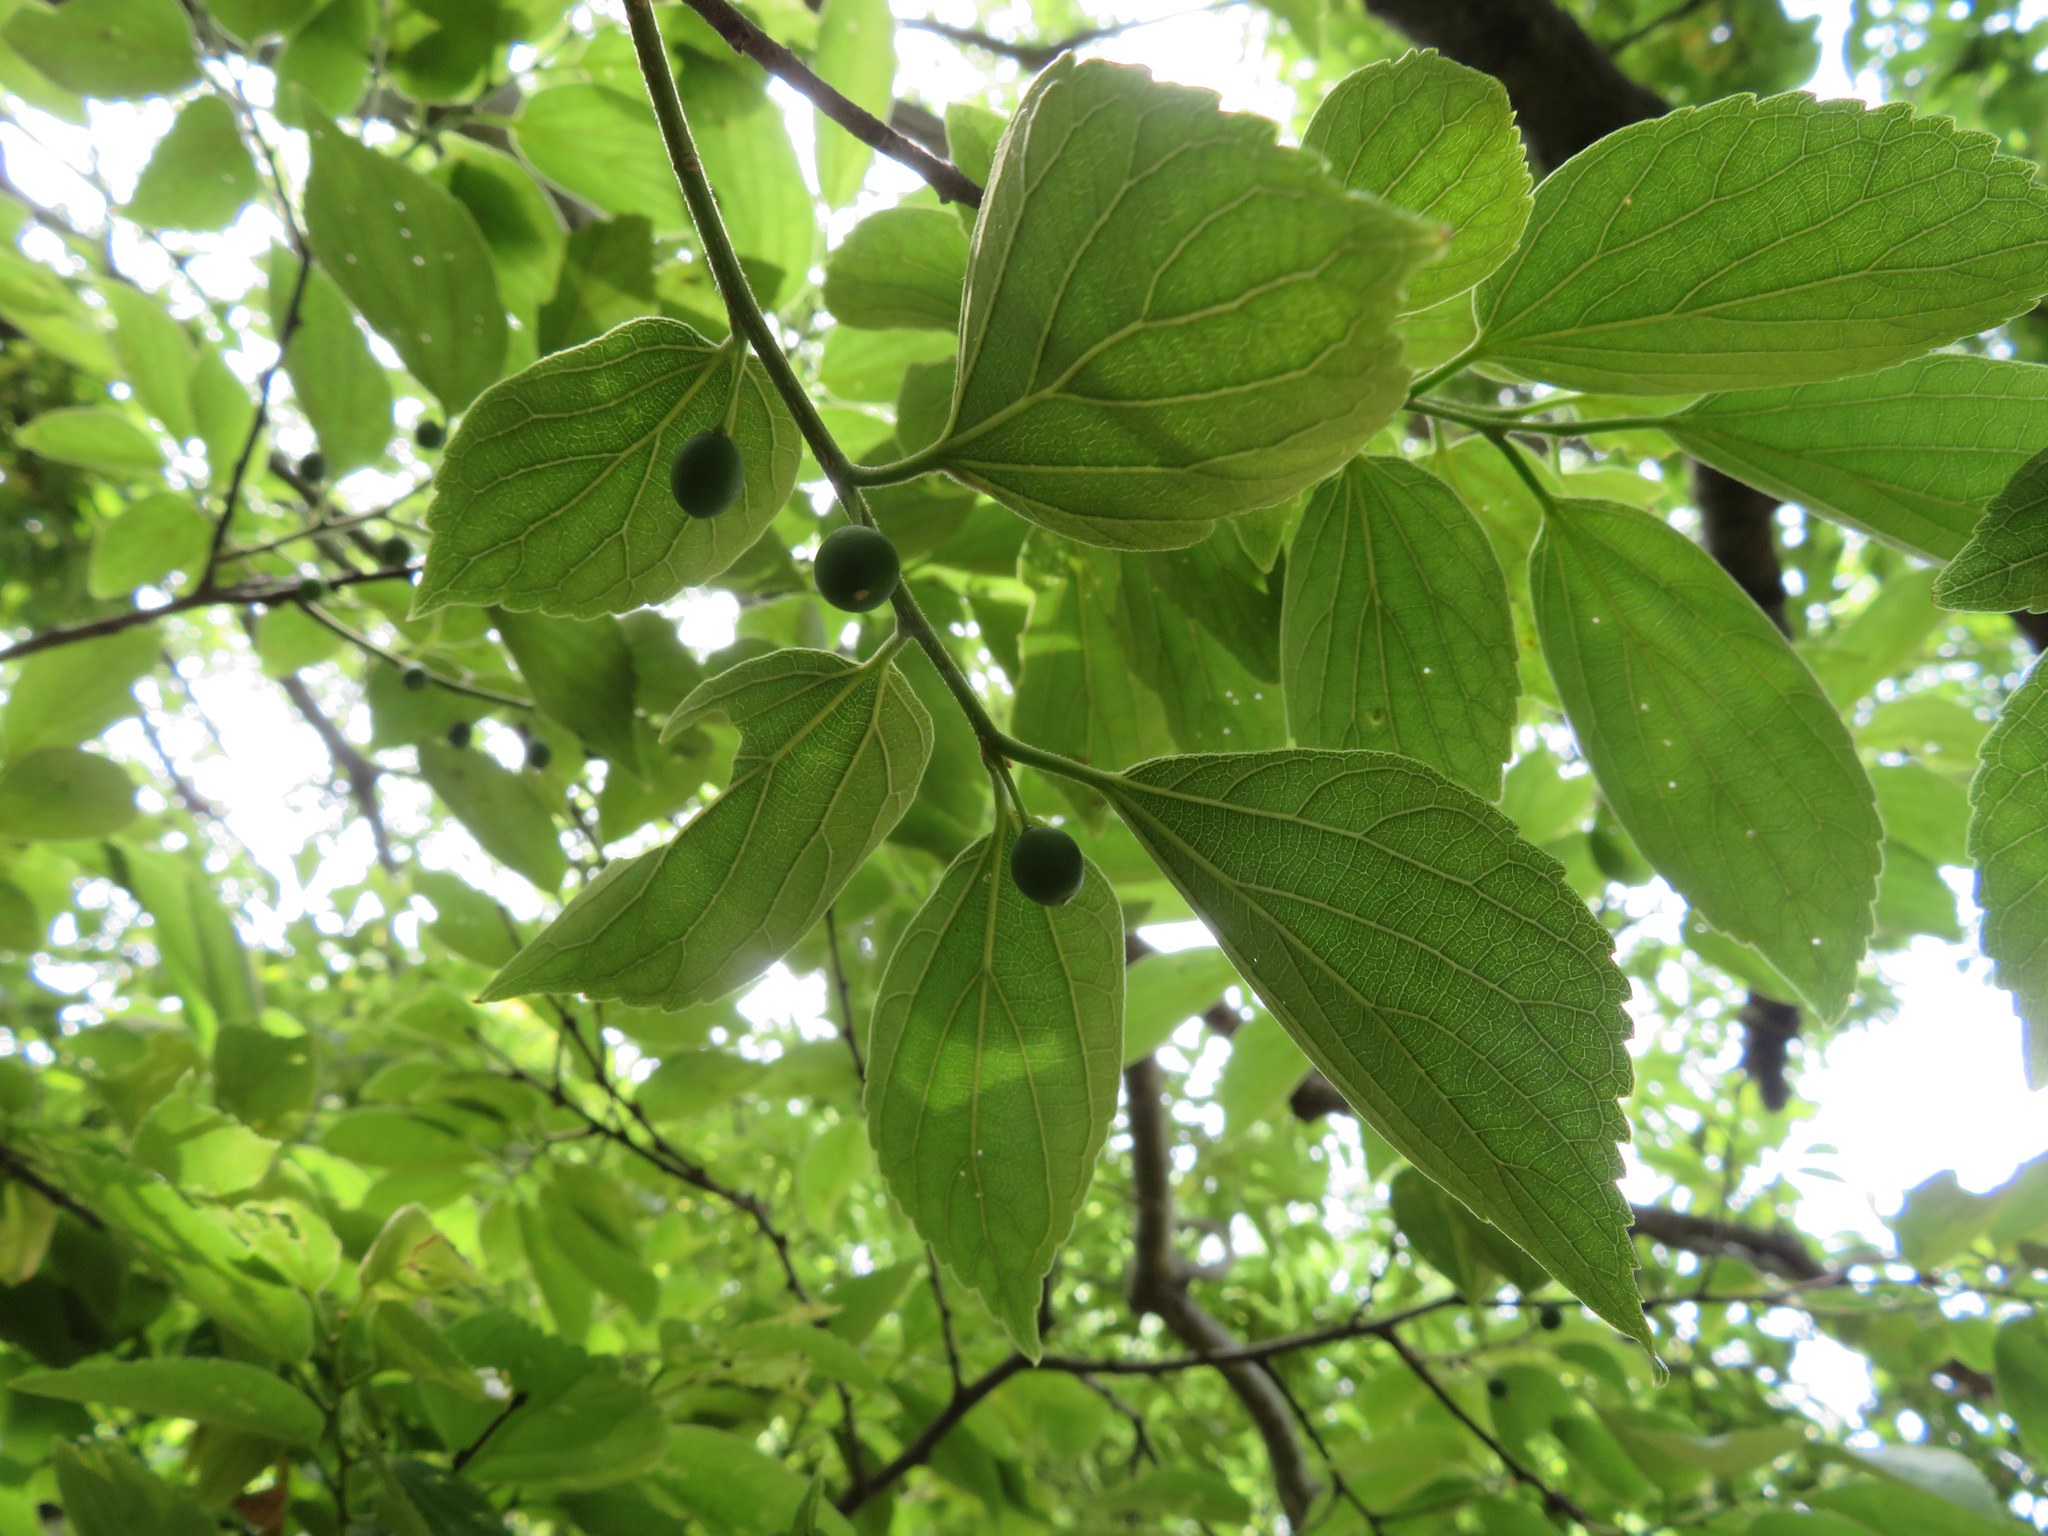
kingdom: Plantae
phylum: Tracheophyta
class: Magnoliopsida
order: Rosales
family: Cannabaceae
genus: Celtis
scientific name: Celtis sinensis
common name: Chinese hackberry
